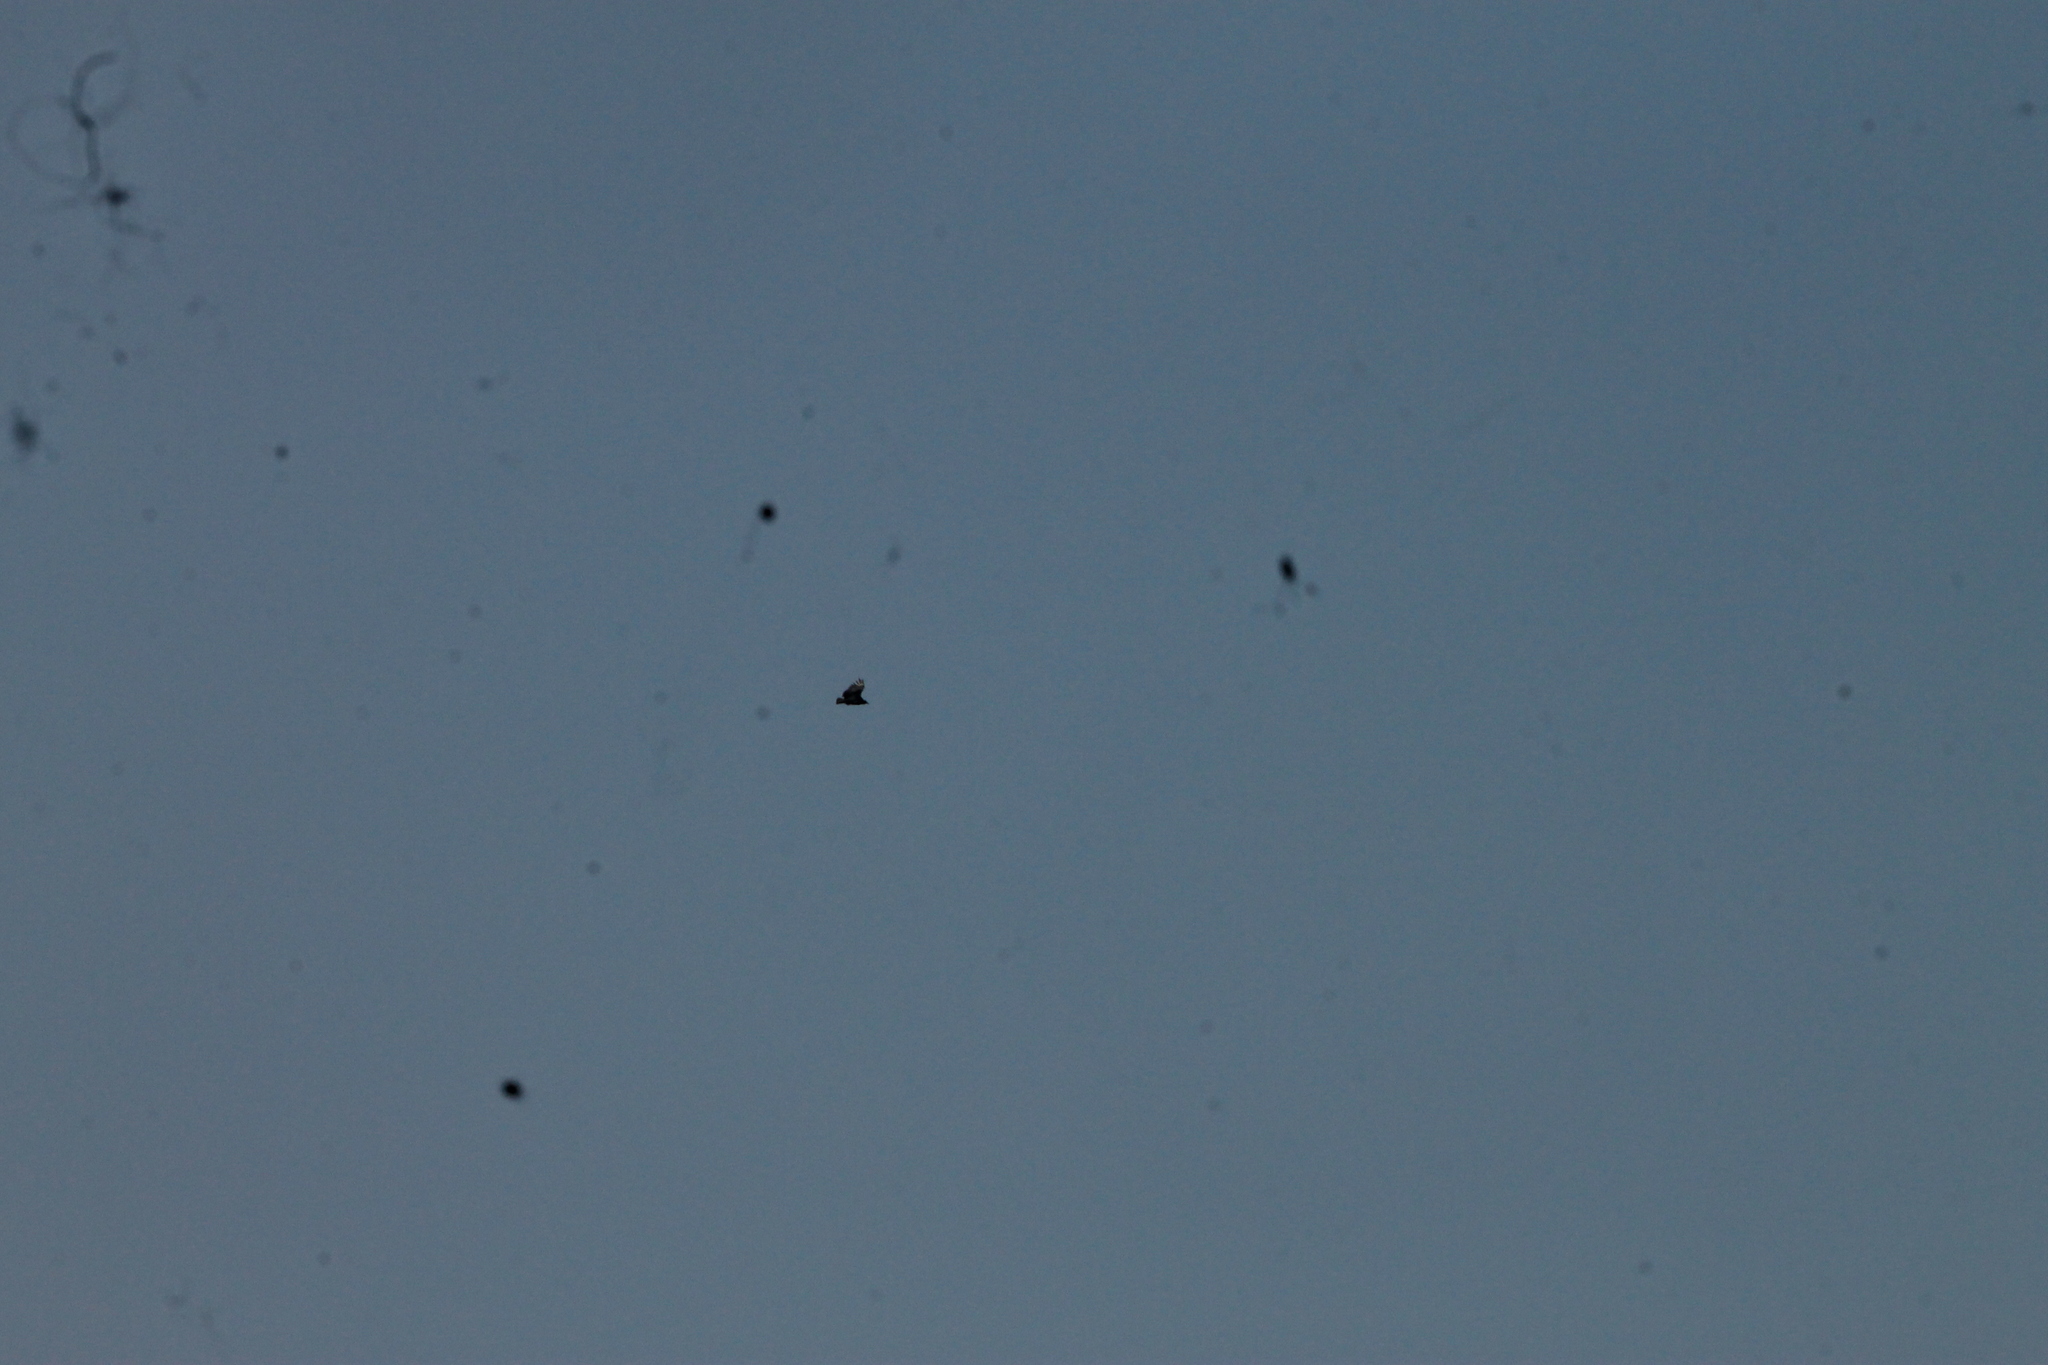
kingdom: Animalia
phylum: Chordata
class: Aves
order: Accipitriformes
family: Cathartidae
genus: Coragyps
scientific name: Coragyps atratus
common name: Black vulture
